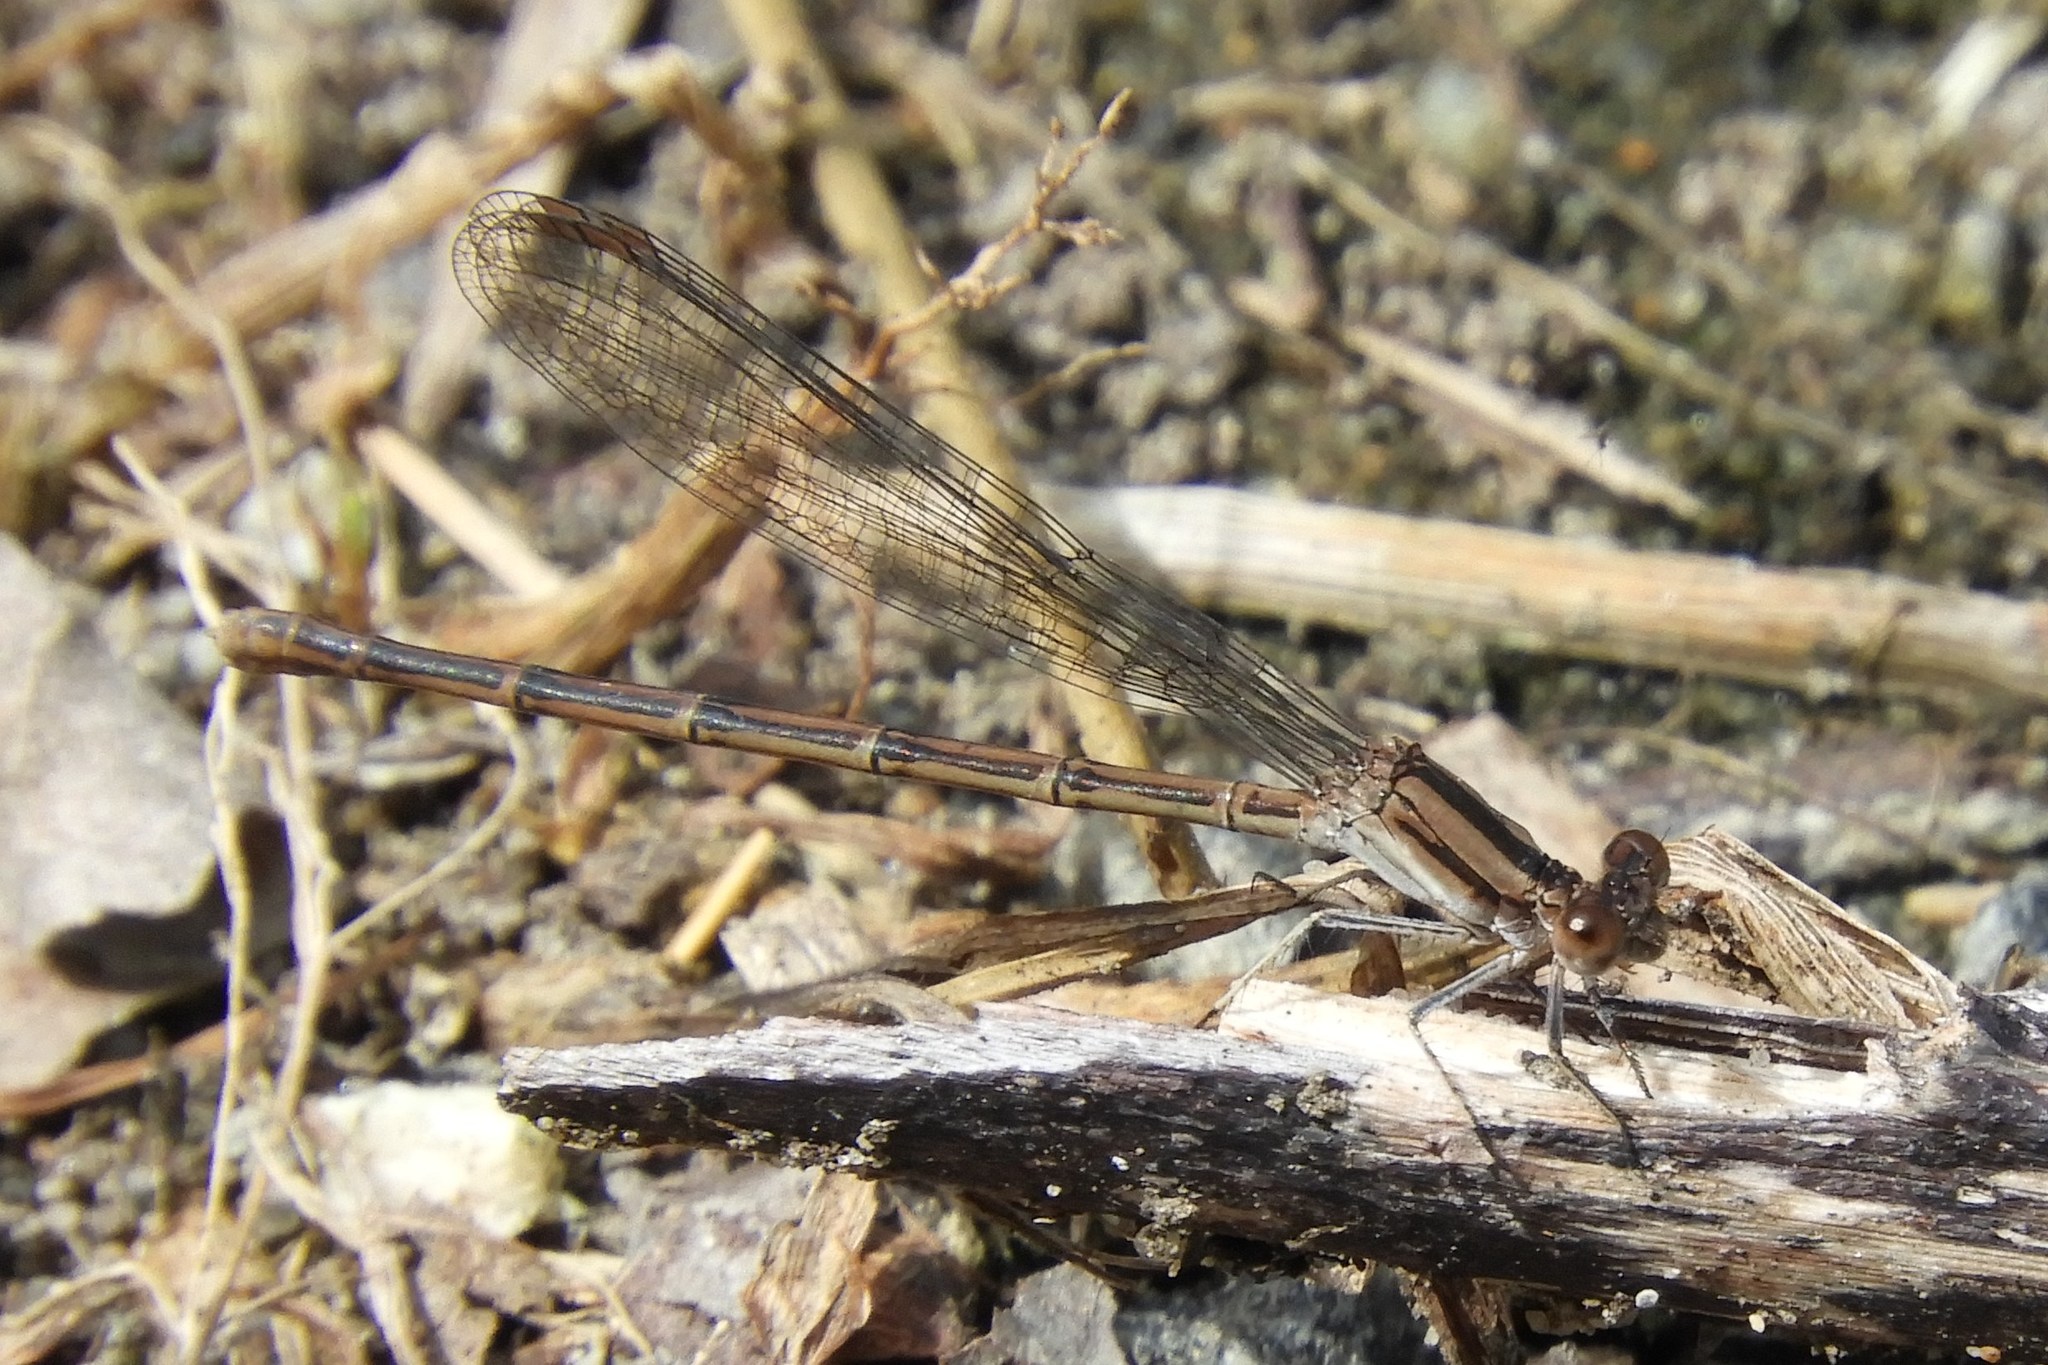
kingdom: Animalia
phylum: Arthropoda
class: Insecta
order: Odonata
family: Coenagrionidae
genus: Argia
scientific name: Argia fumipennis
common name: Variable dancer
